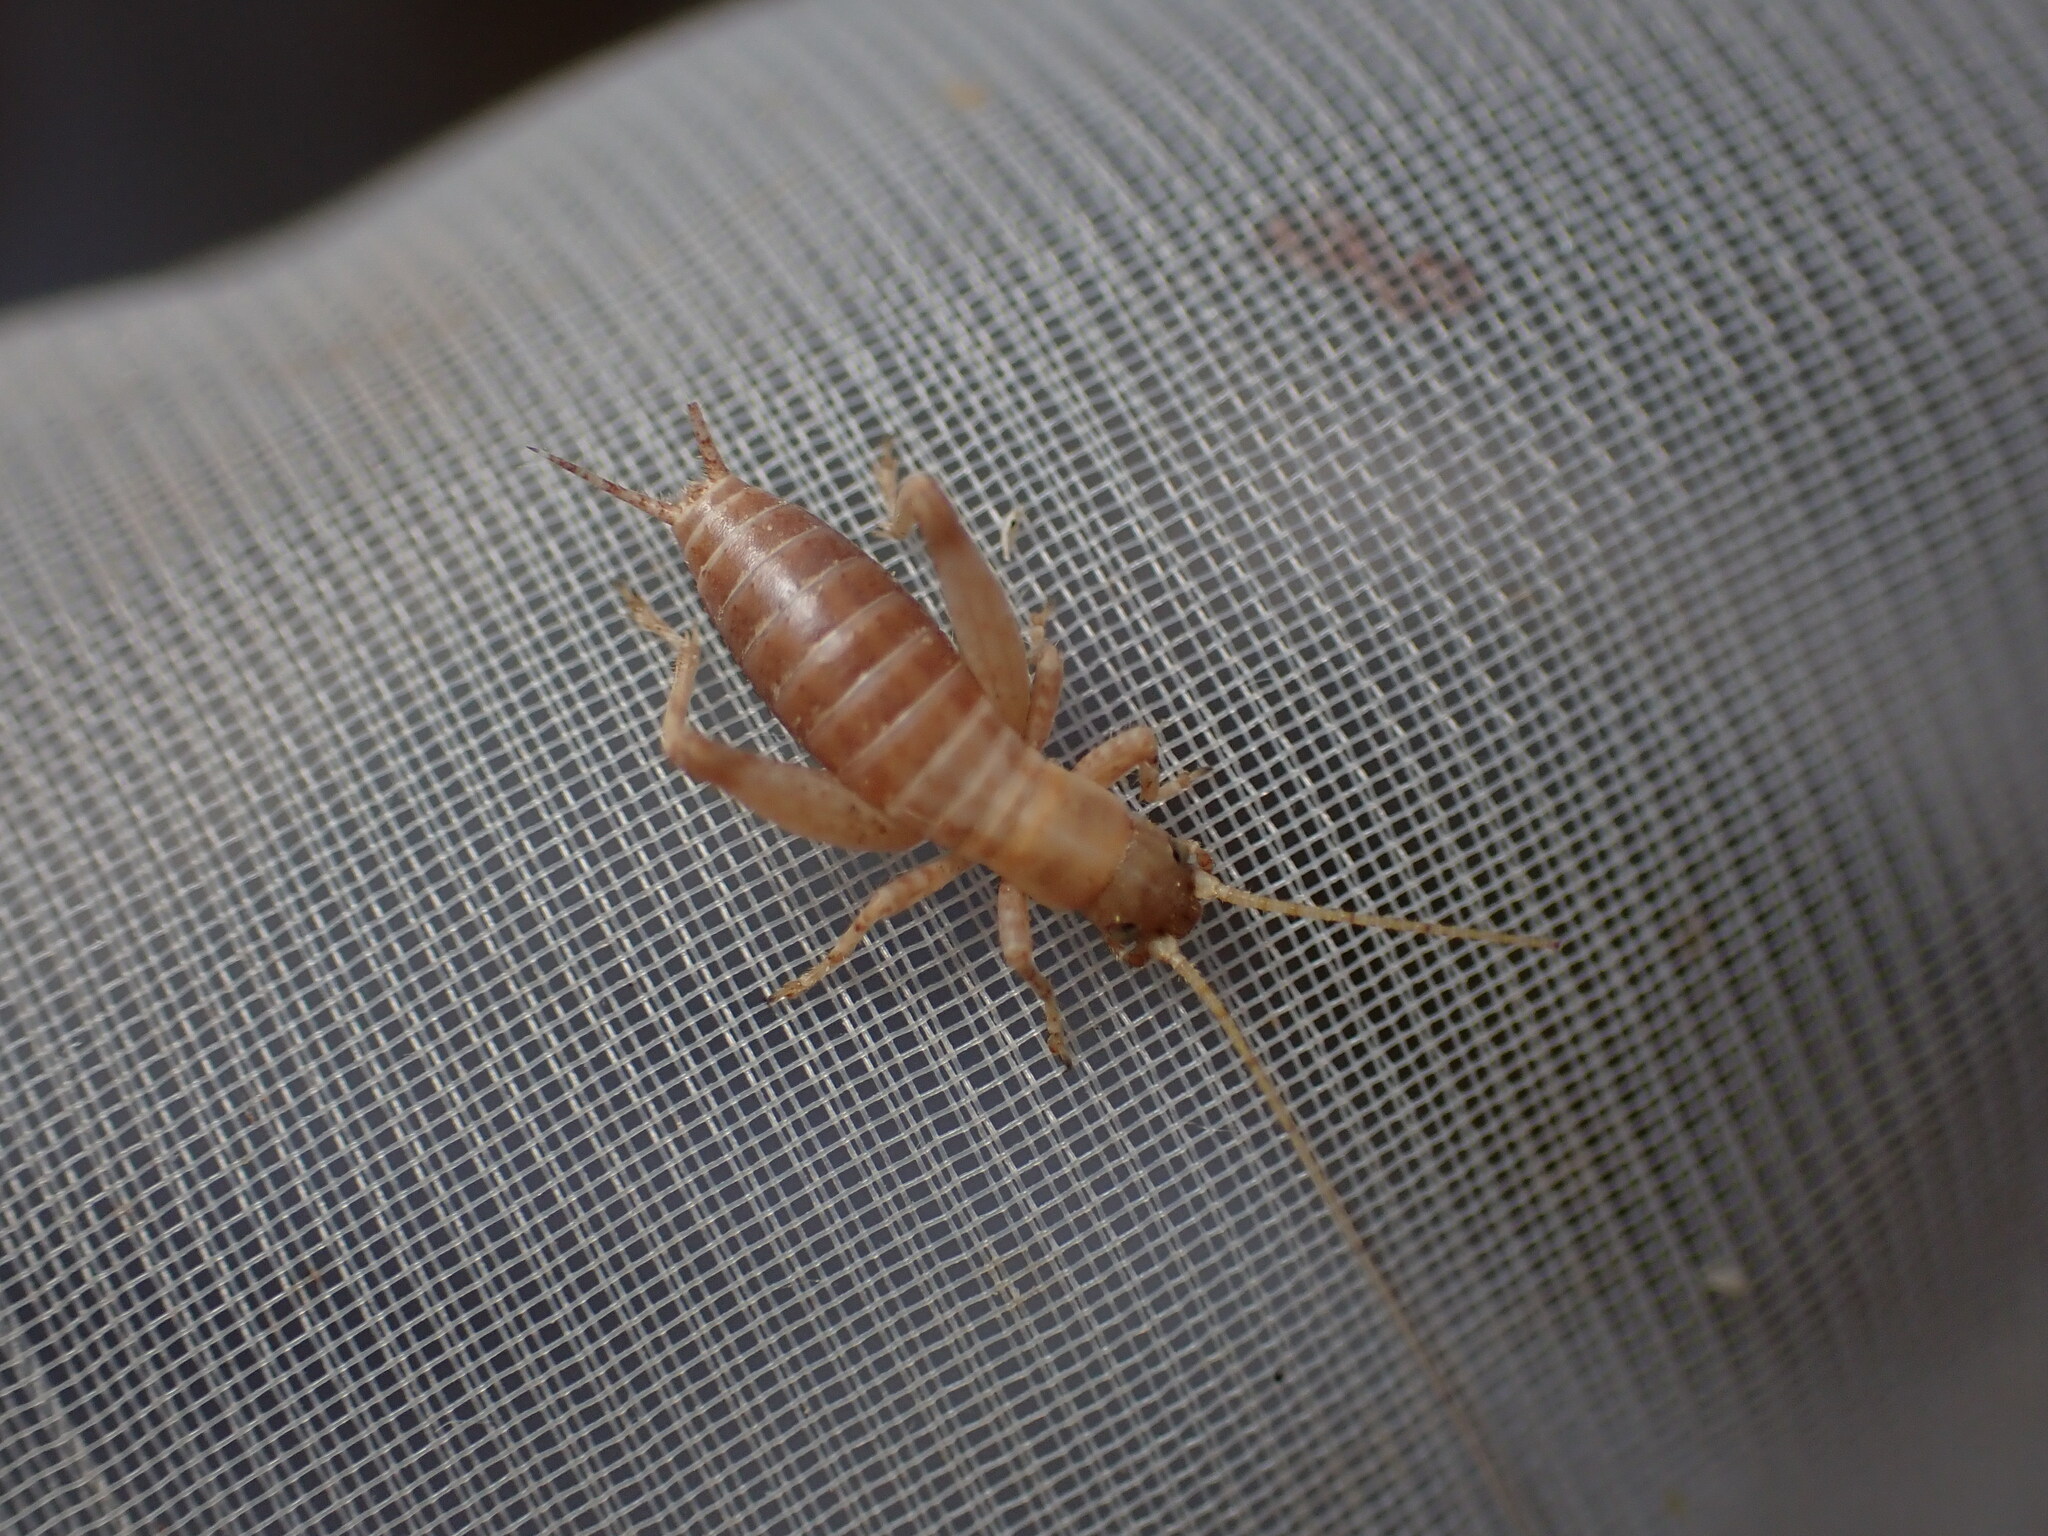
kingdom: Animalia
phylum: Arthropoda
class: Insecta
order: Orthoptera
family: Mogoplistidae
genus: Arachnocephalus
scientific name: Arachnocephalus vestitus
